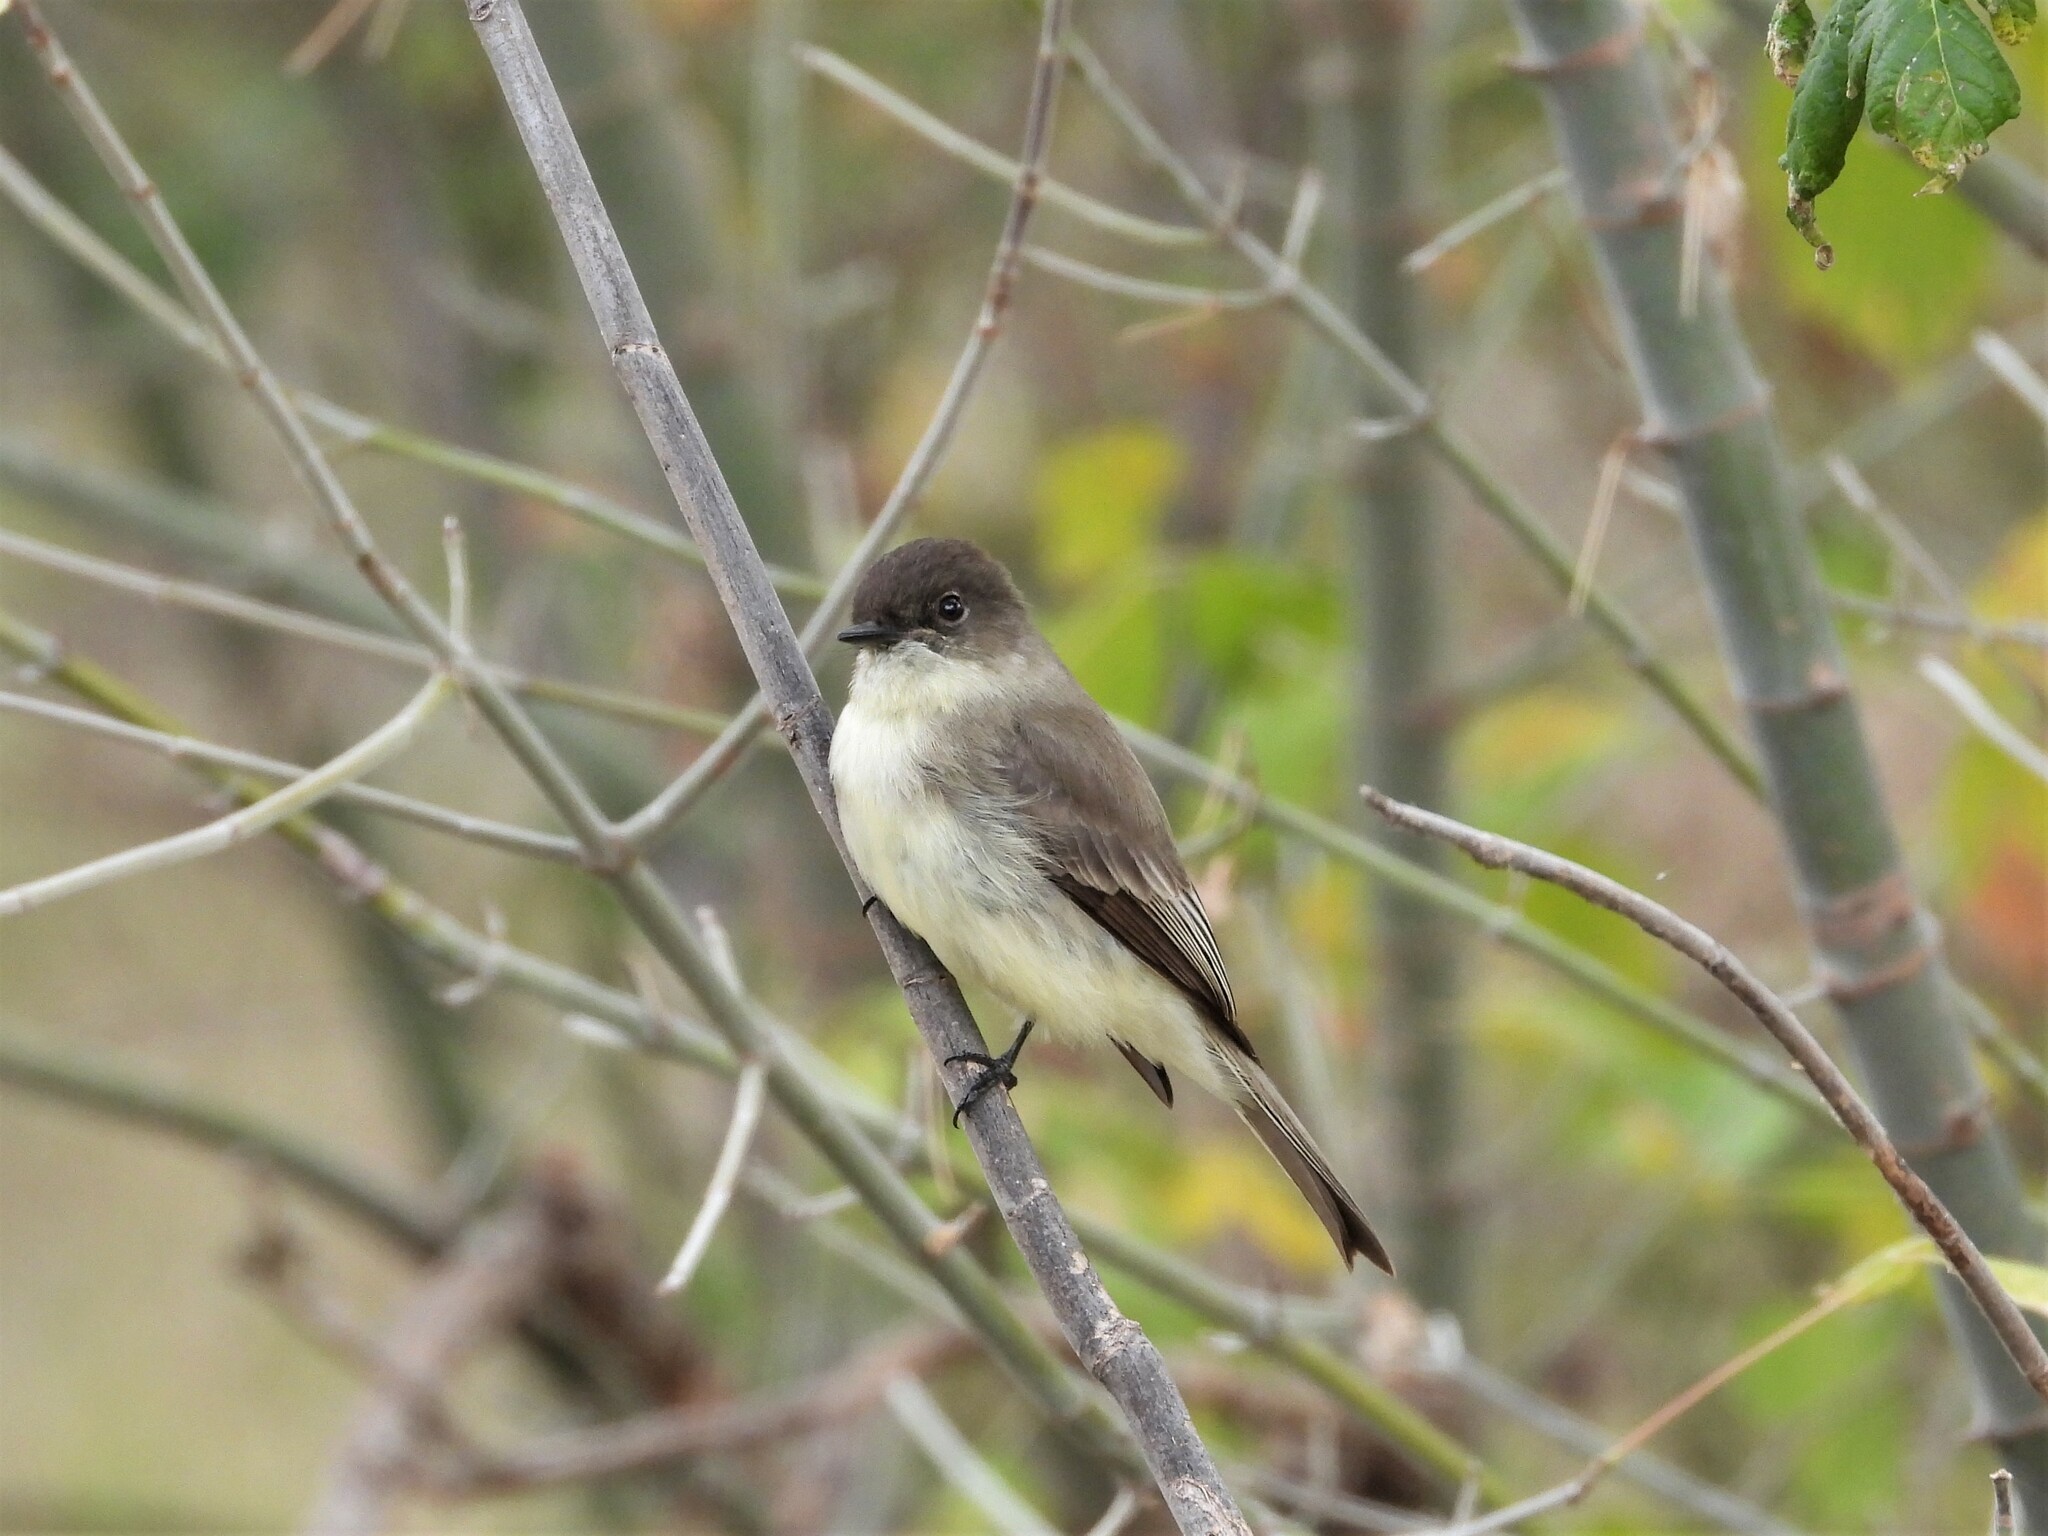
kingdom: Animalia
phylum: Chordata
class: Aves
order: Passeriformes
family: Tyrannidae
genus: Sayornis
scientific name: Sayornis phoebe
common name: Eastern phoebe
